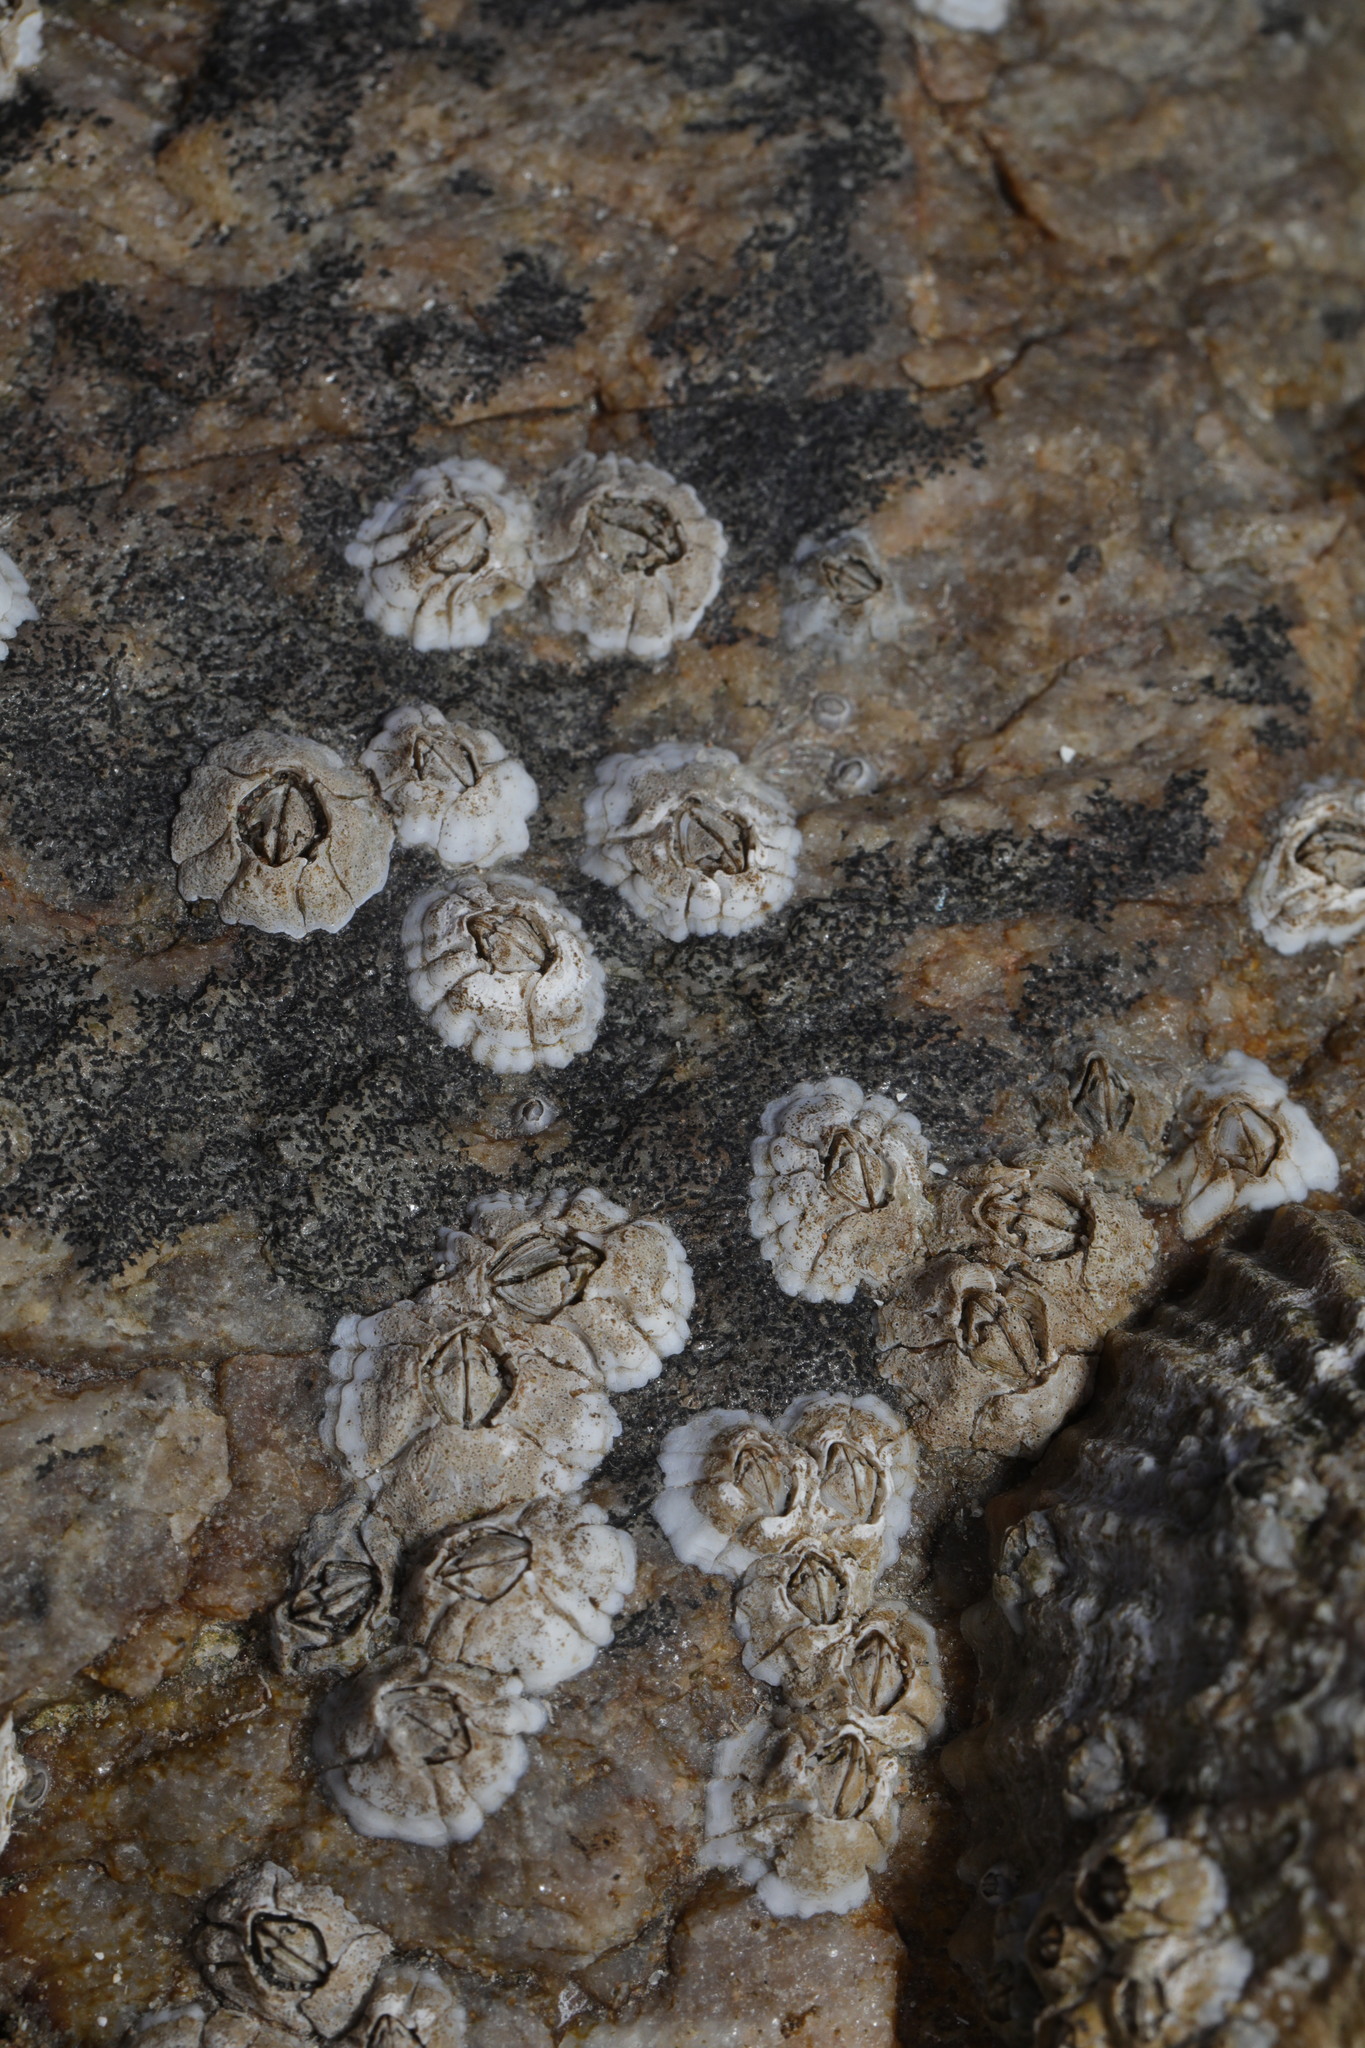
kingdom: Animalia
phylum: Arthropoda
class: Maxillopoda
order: Sessilia
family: Archaeobalanidae
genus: Semibalanus
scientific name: Semibalanus balanoides
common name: Acorn barnacle
